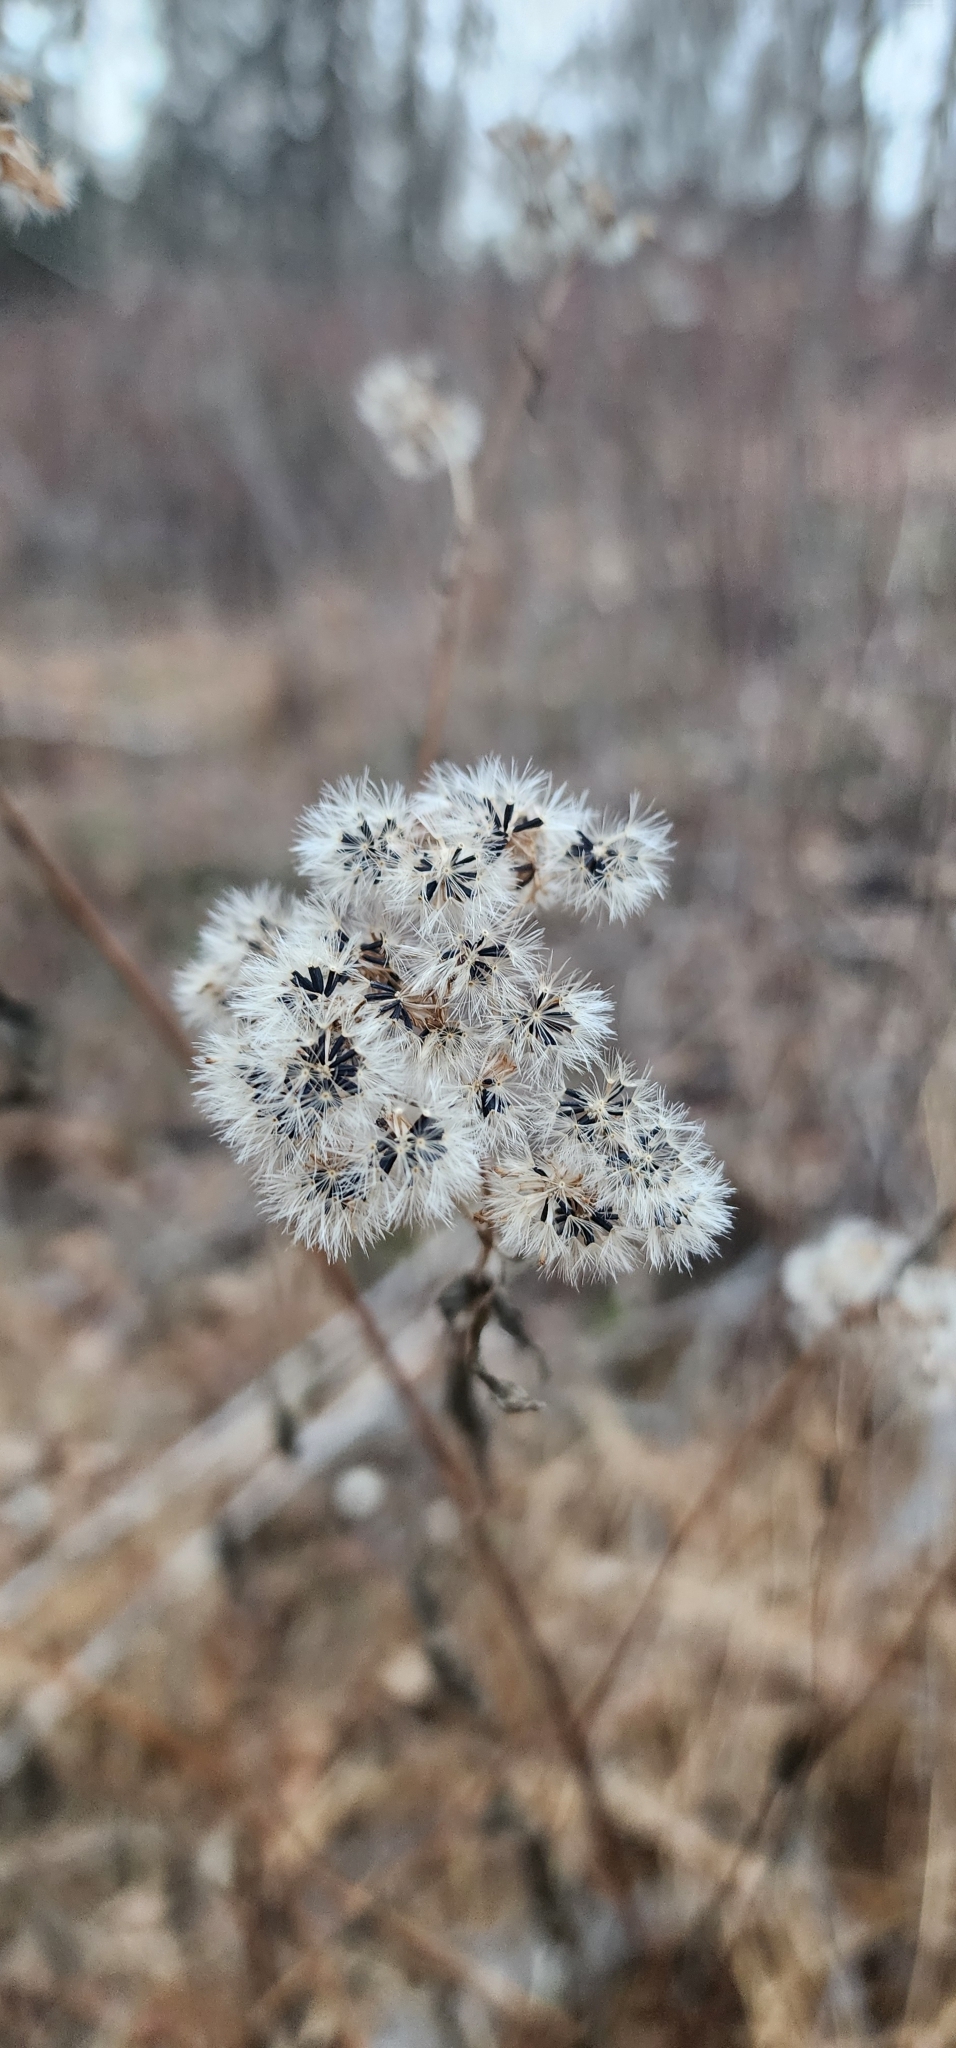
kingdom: Plantae
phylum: Tracheophyta
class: Magnoliopsida
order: Asterales
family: Asteraceae
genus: Ageratina
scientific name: Ageratina altissima
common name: White snakeroot
